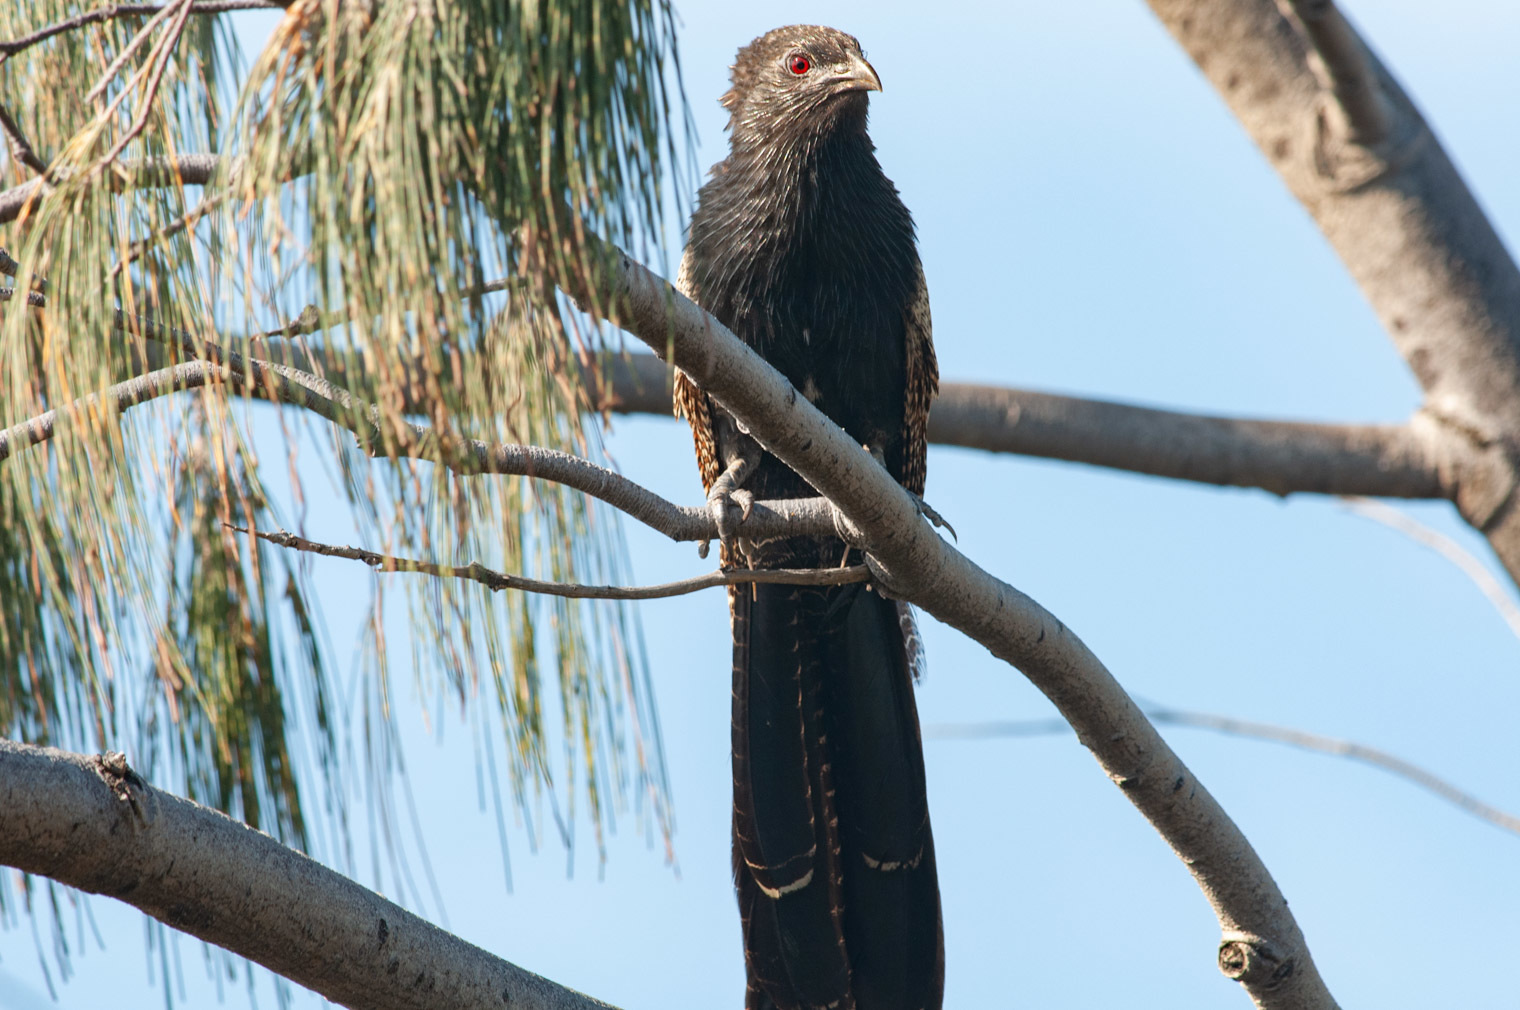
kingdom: Animalia
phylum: Chordata
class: Aves
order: Cuculiformes
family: Cuculidae
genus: Centropus
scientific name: Centropus phasianinus
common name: Pheasant coucal
